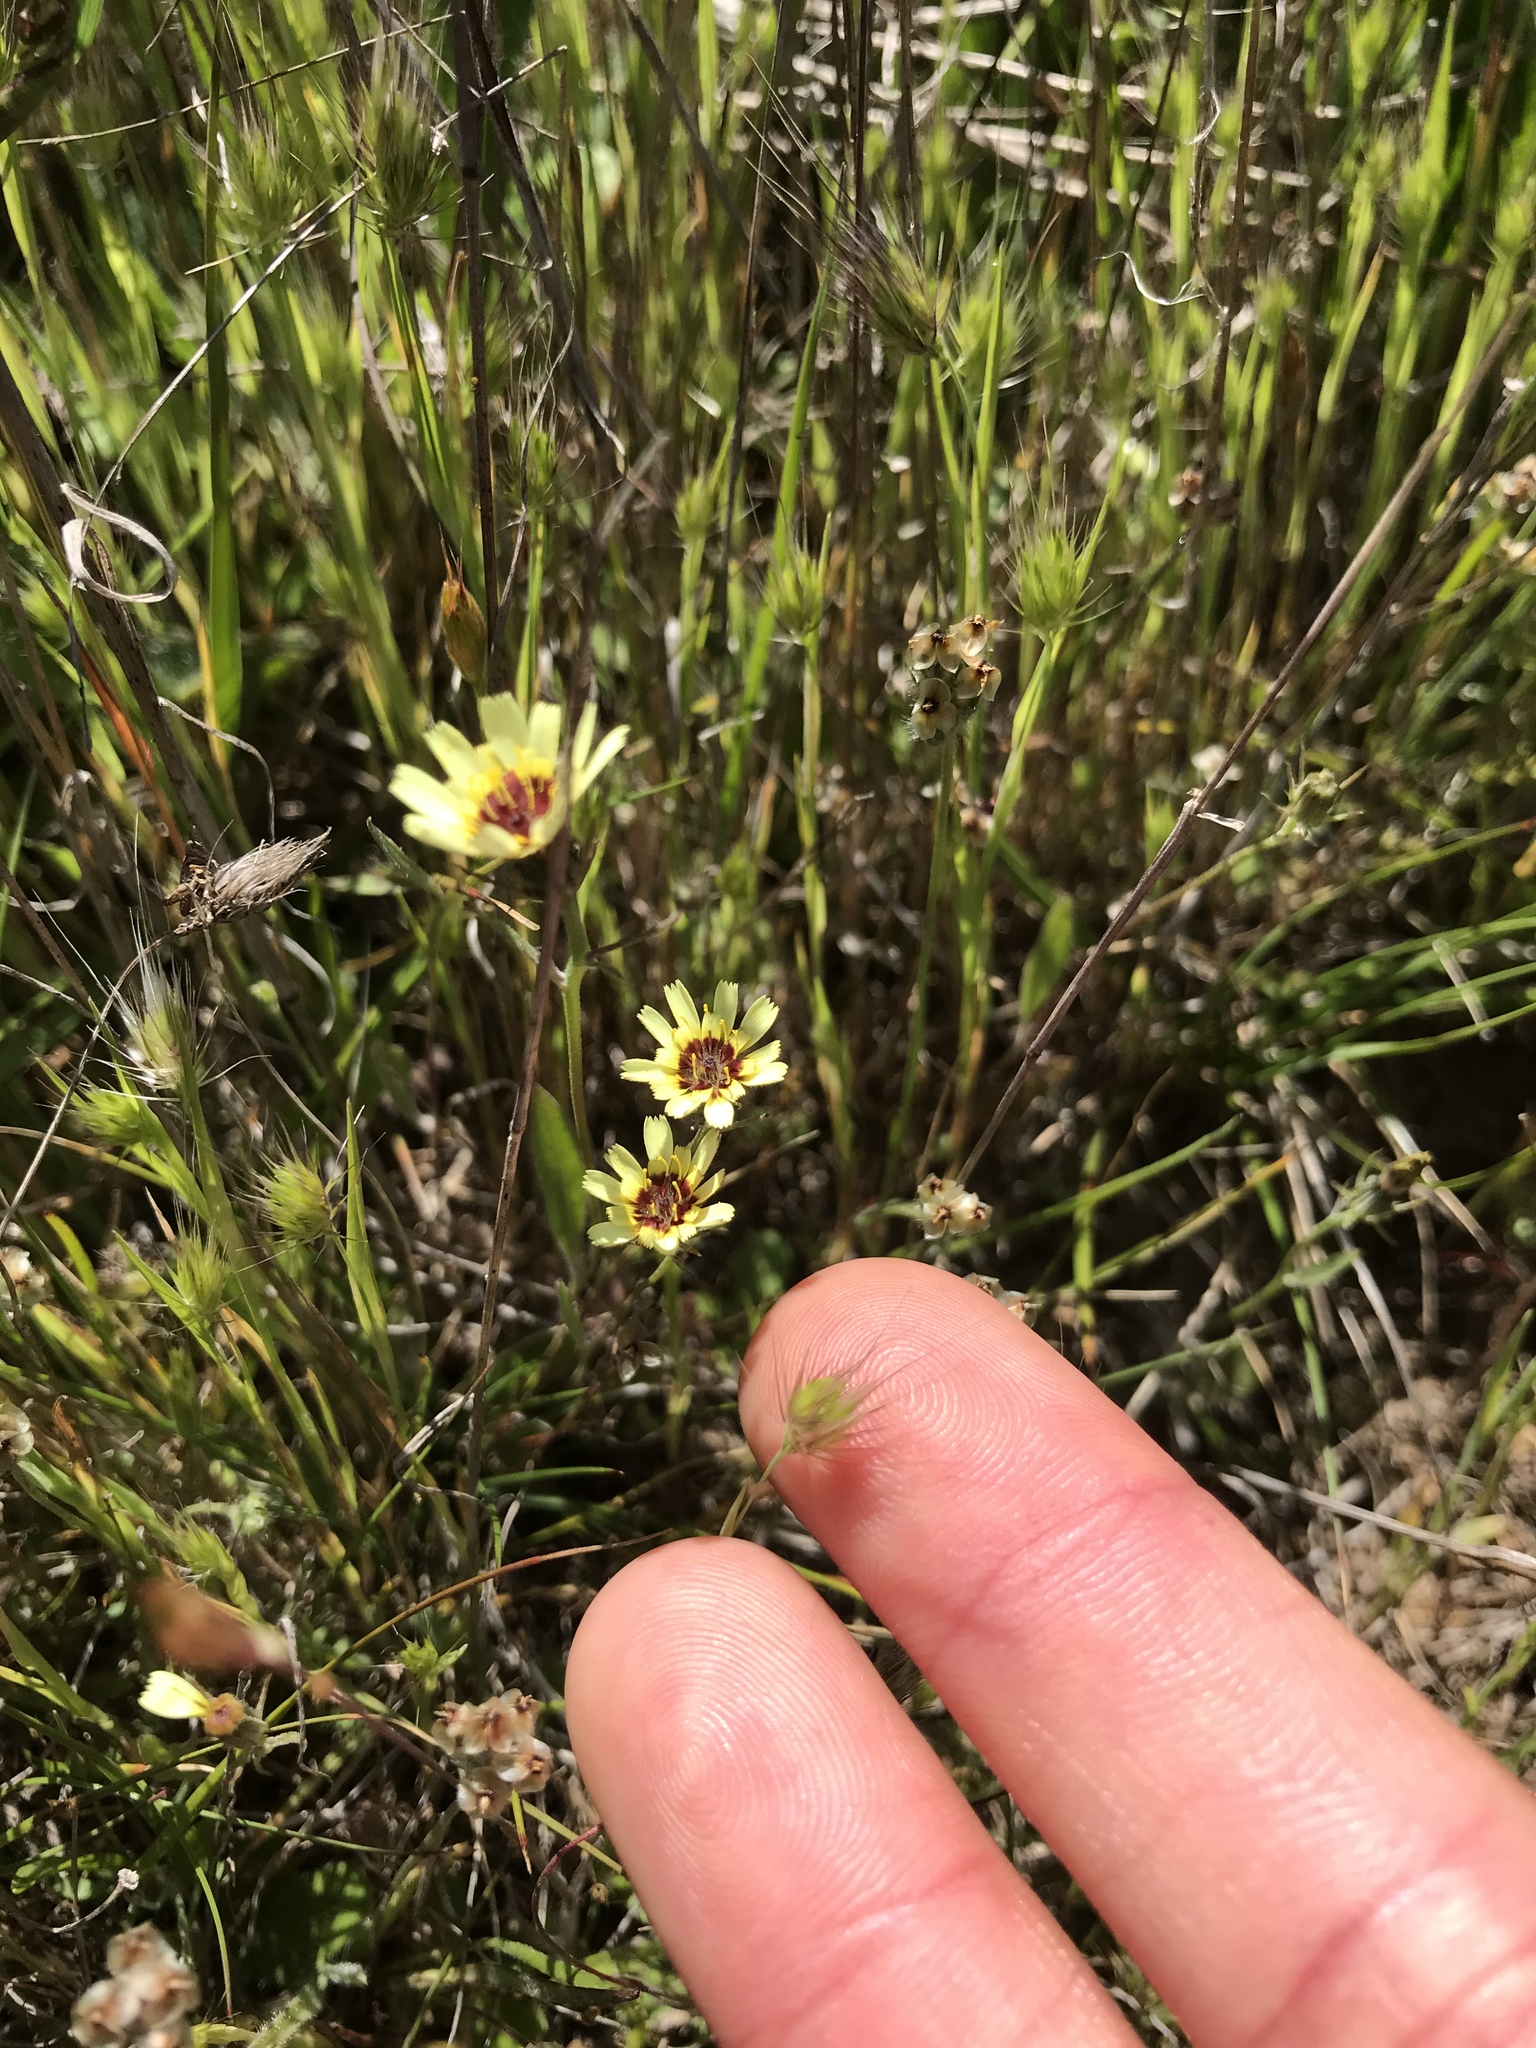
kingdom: Plantae
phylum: Tracheophyta
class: Magnoliopsida
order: Asterales
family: Asteraceae
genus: Tolpis
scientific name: Tolpis barbata
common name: Yellow hawkweed
